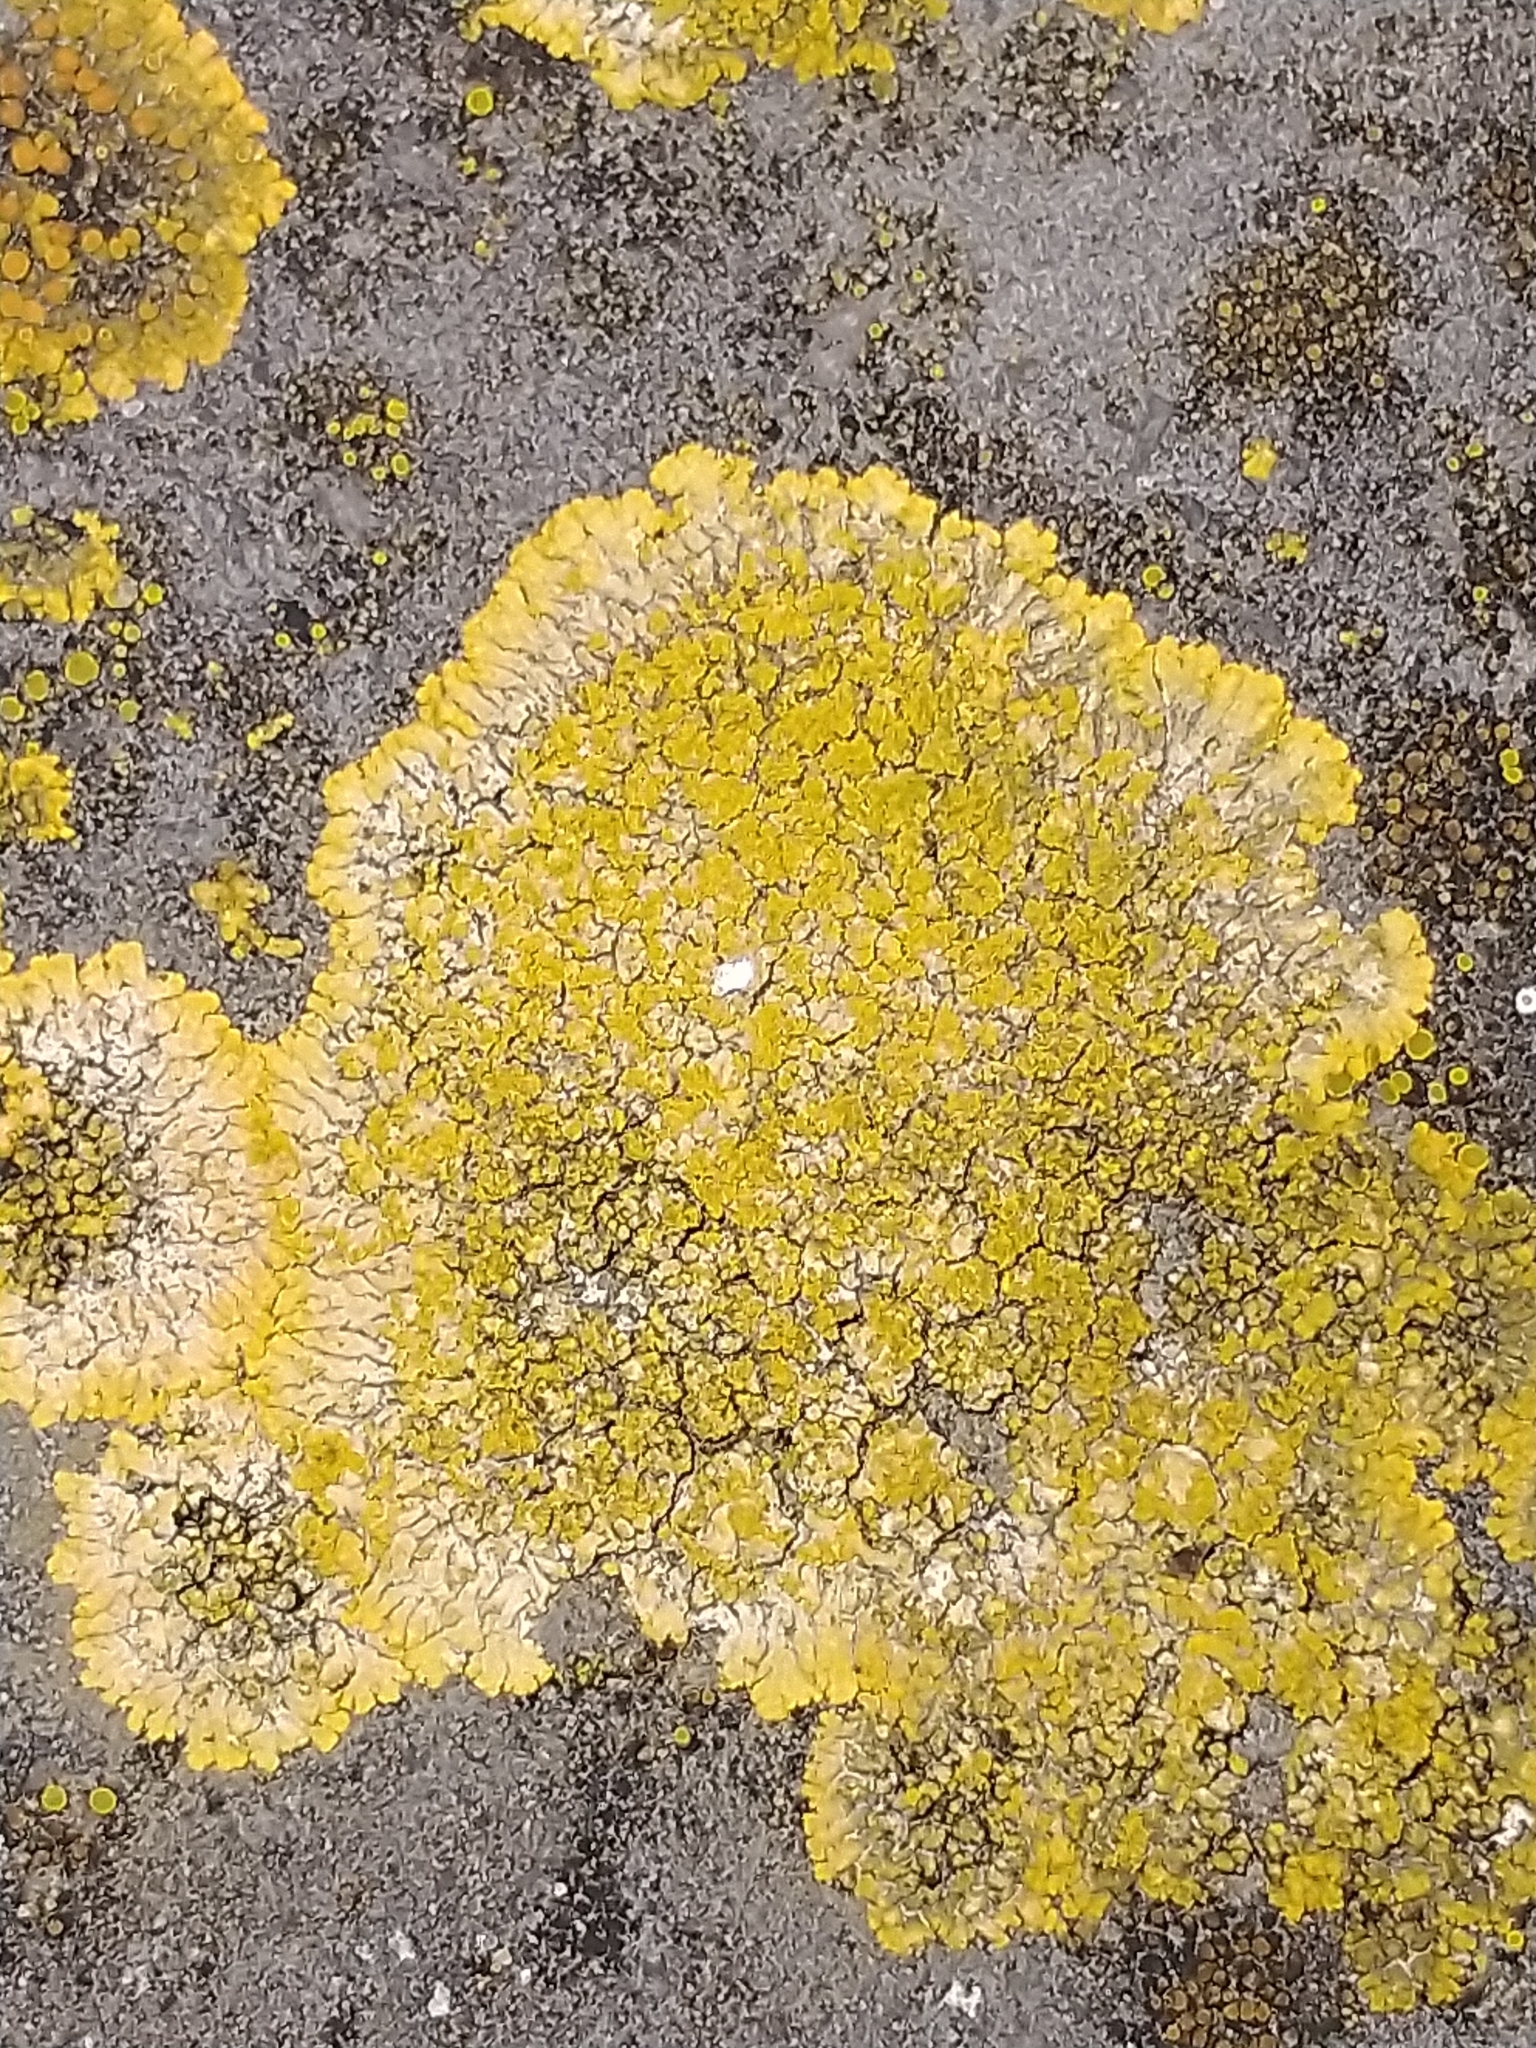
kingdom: Fungi
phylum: Ascomycota
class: Lecanoromycetes
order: Teloschistales
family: Teloschistaceae
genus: Calogaya
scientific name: Calogaya decipiens
